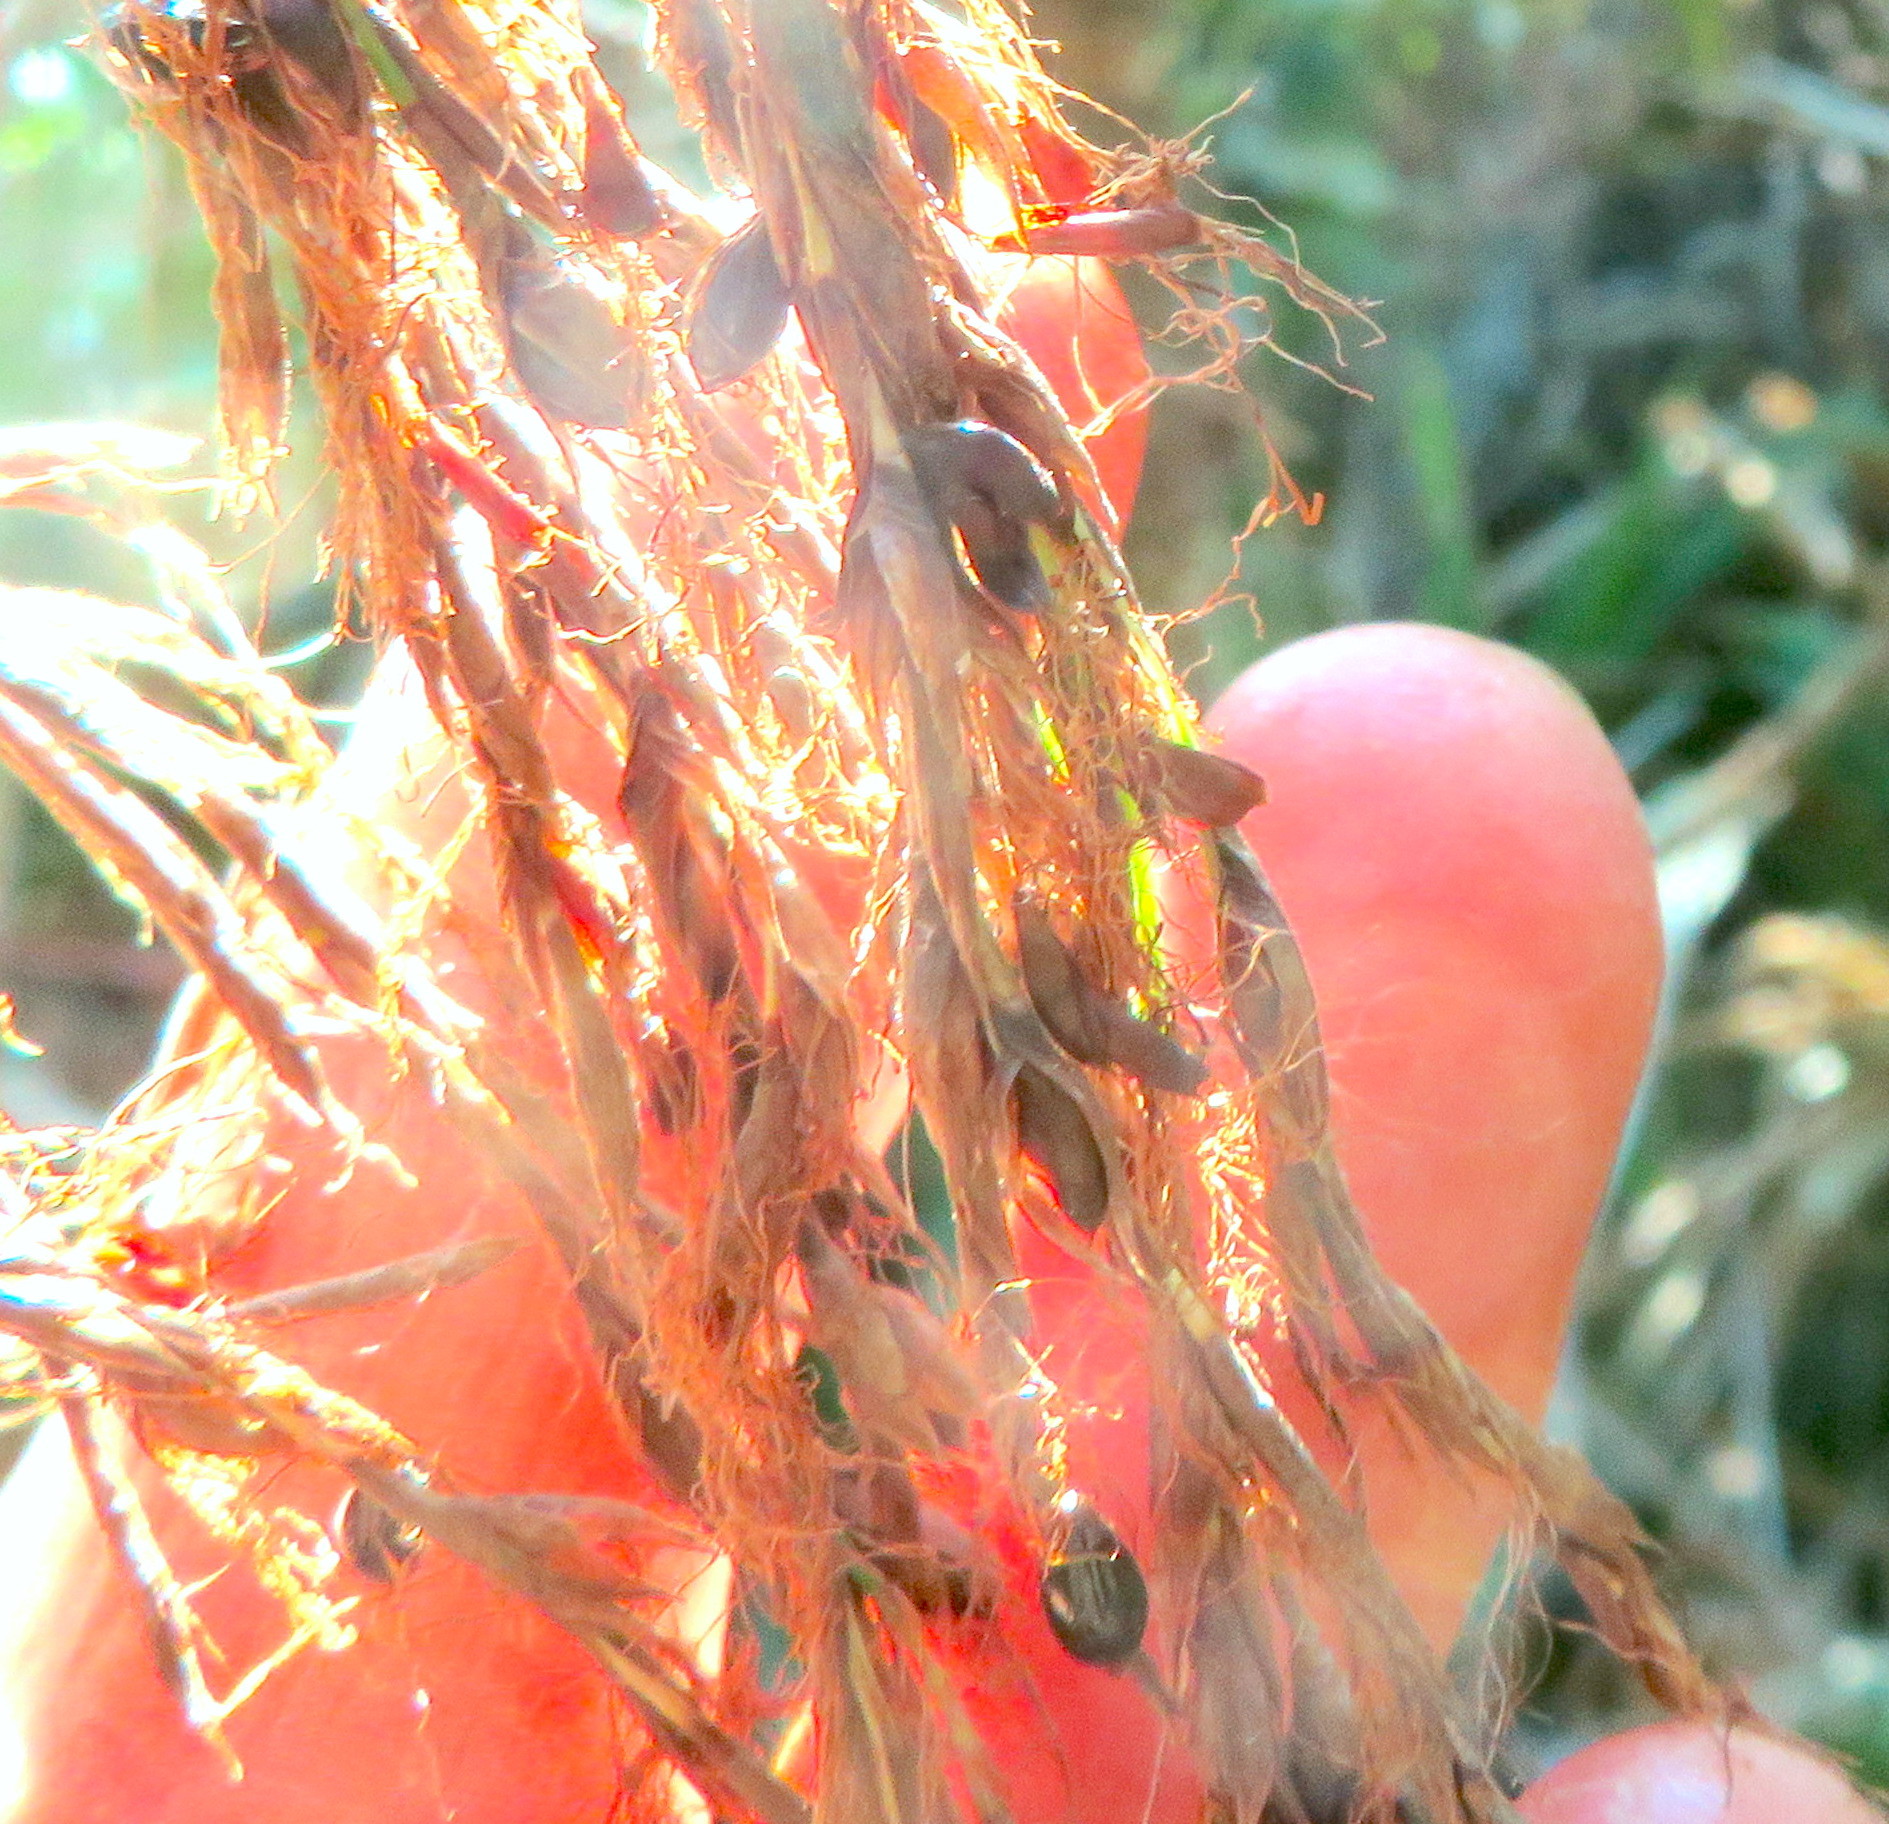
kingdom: Plantae
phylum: Tracheophyta
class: Liliopsida
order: Poales
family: Cyperaceae
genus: Gahnia
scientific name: Gahnia xanthocarpa
